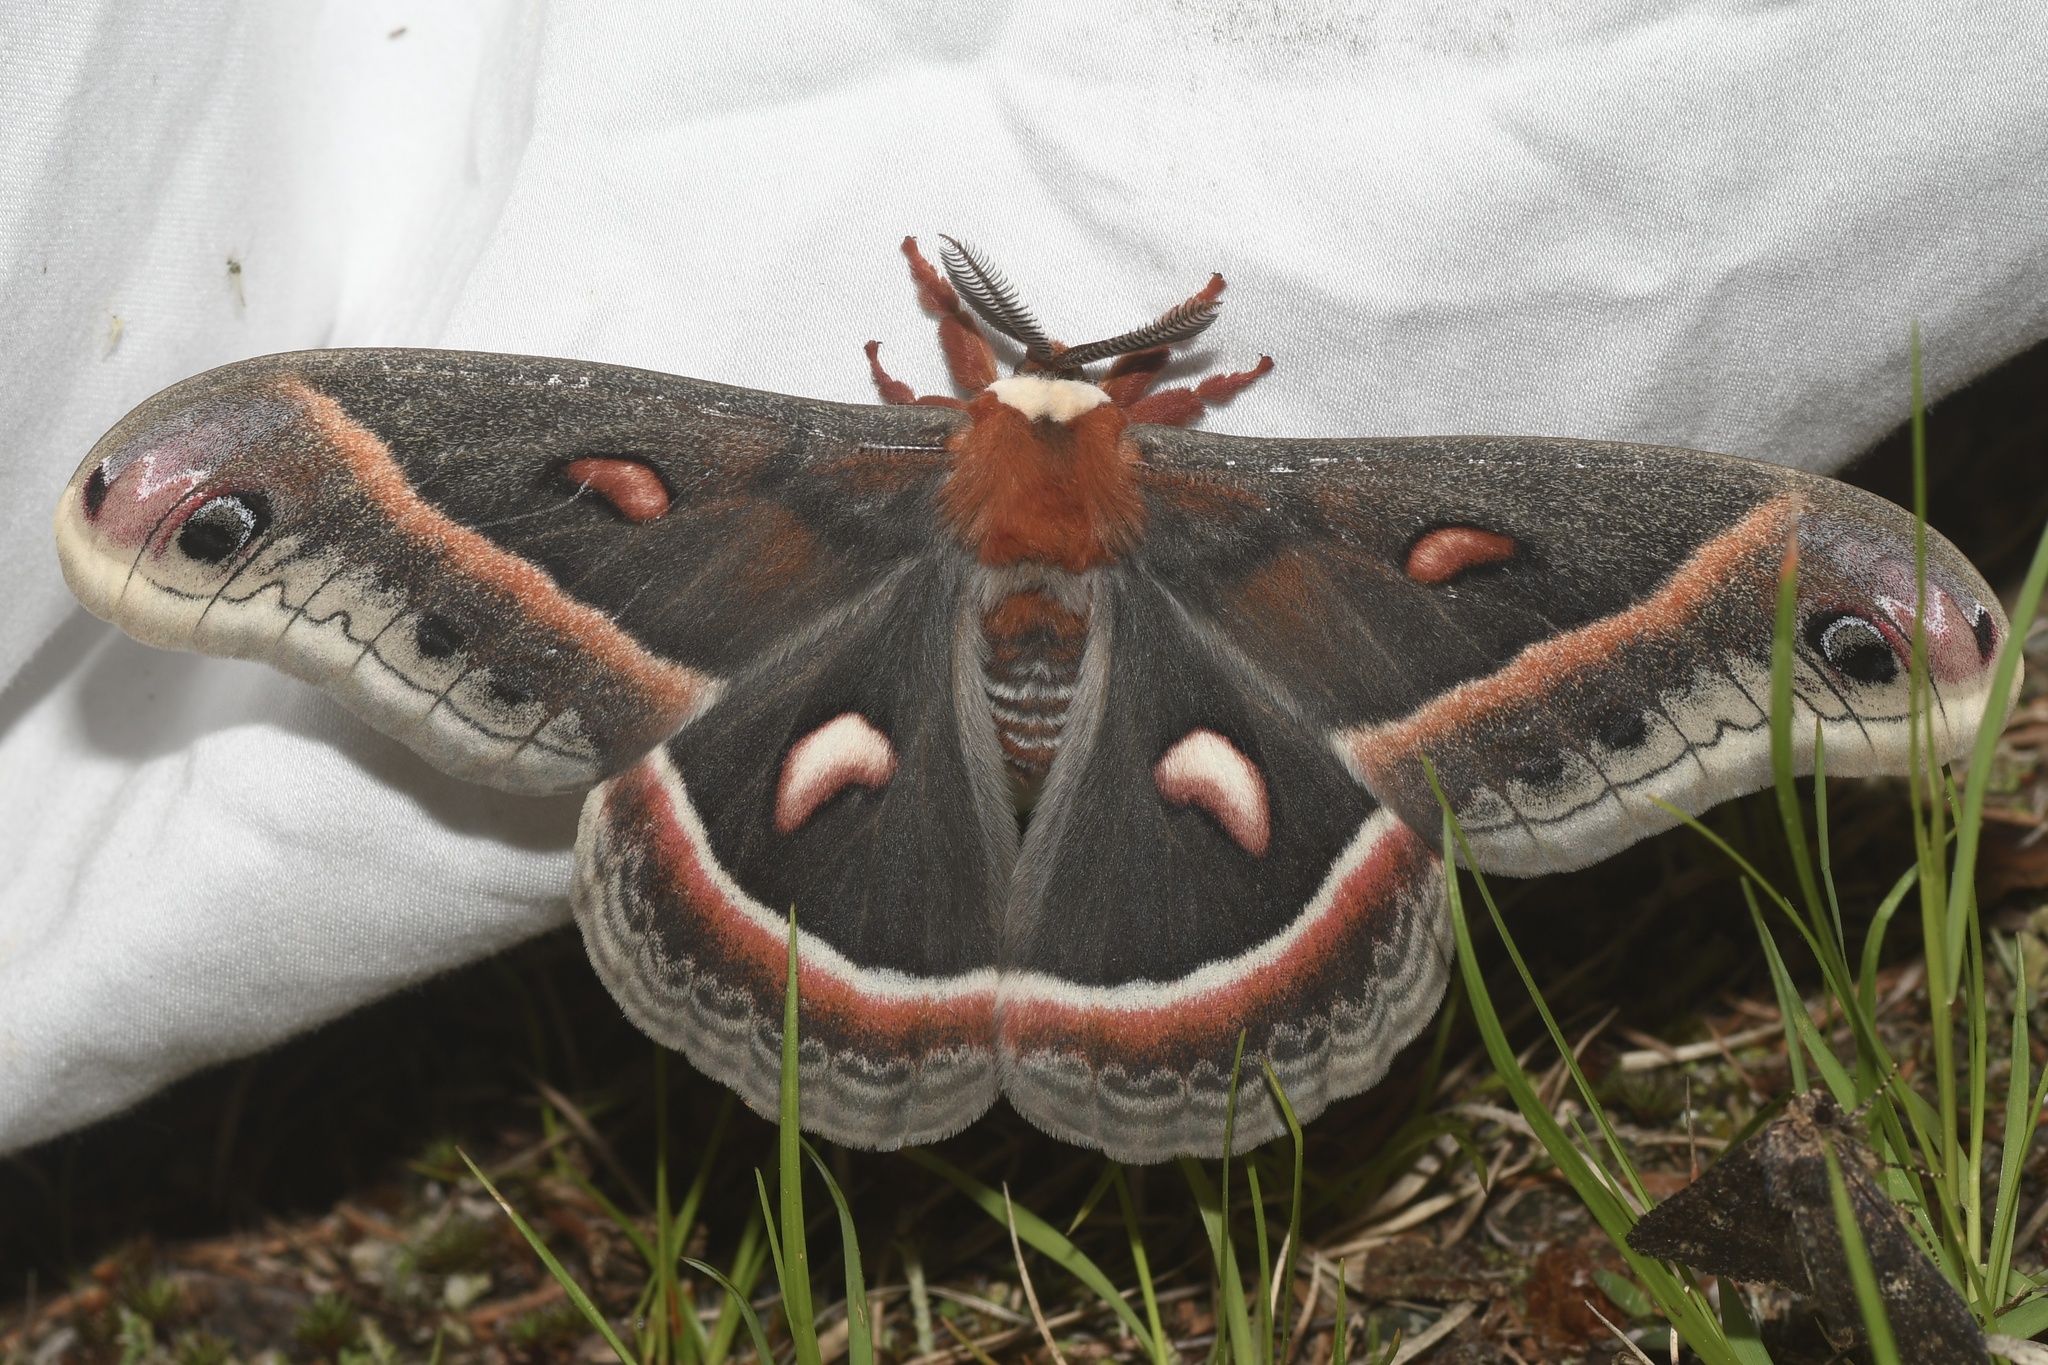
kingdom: Animalia
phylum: Arthropoda
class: Insecta
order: Lepidoptera
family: Saturniidae
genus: Hyalophora
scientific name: Hyalophora cecropia
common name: Cecropia silkmoth
